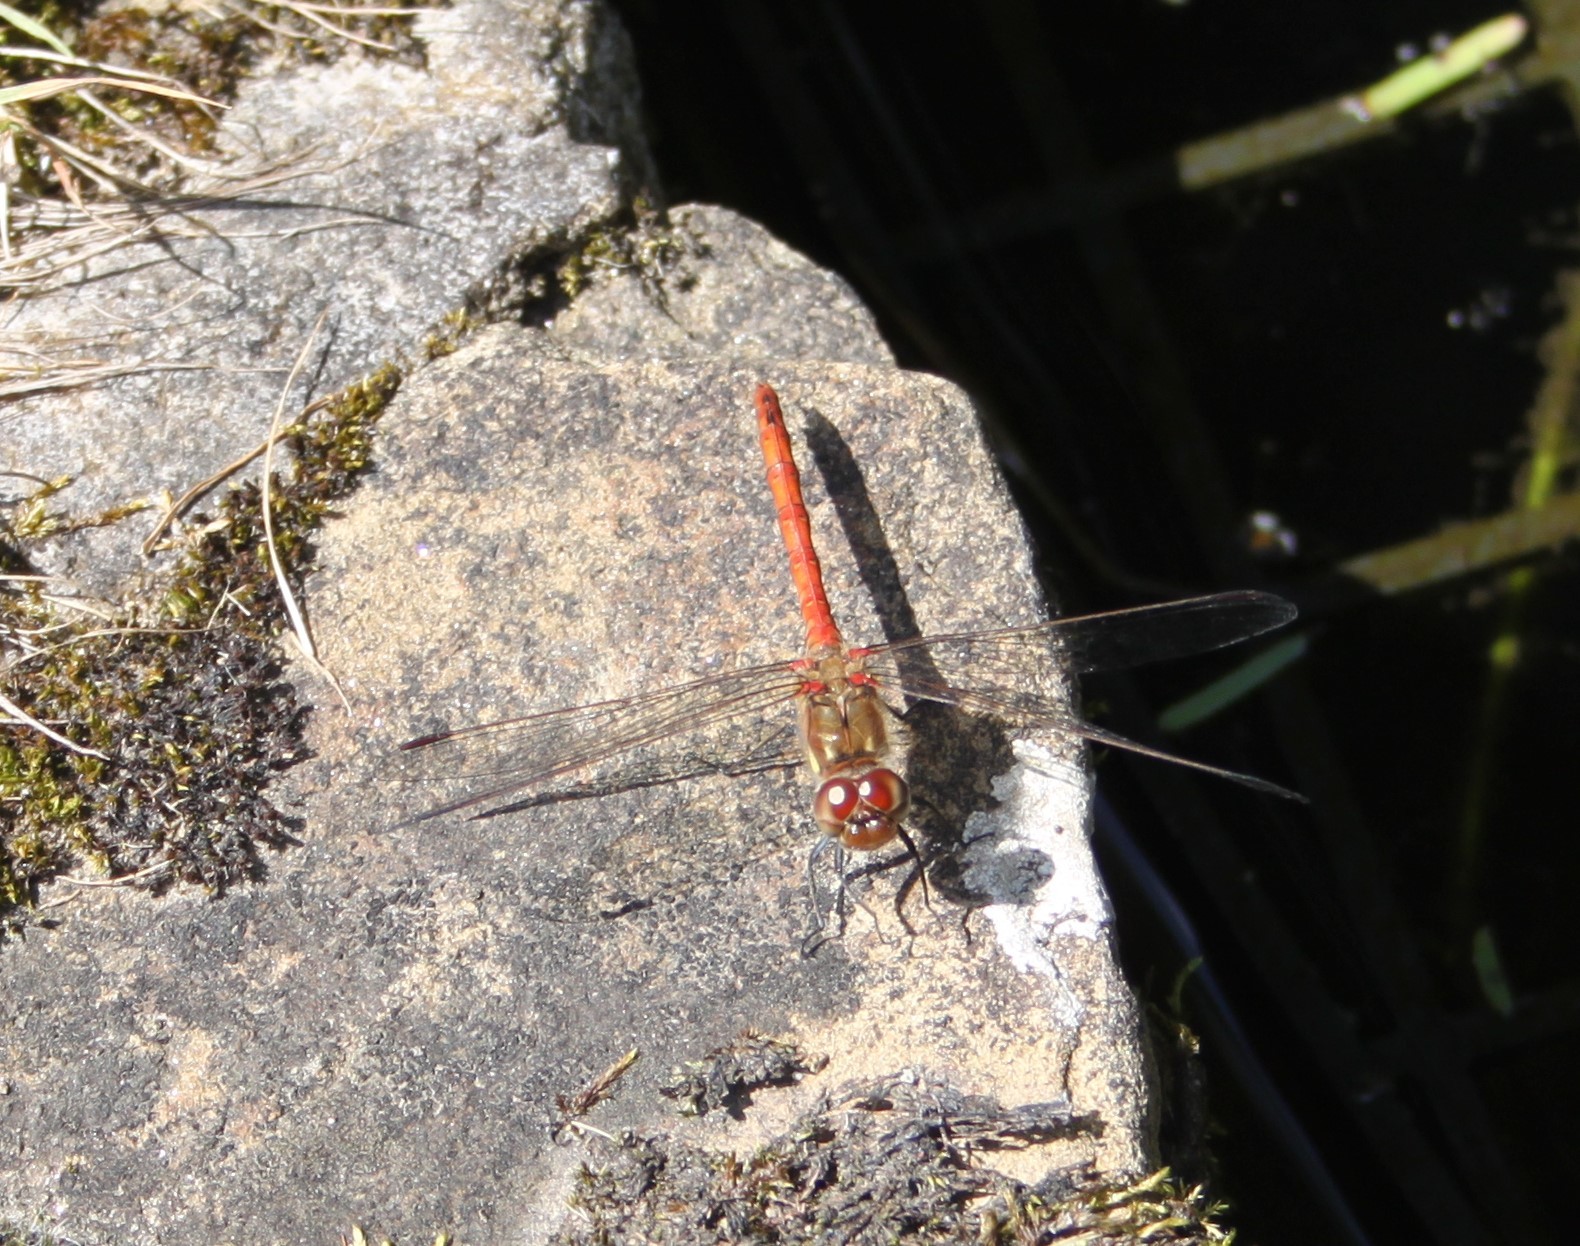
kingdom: Animalia
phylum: Arthropoda
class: Insecta
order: Odonata
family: Libellulidae
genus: Sympetrum
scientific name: Sympetrum sanguineum
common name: Ruddy darter
